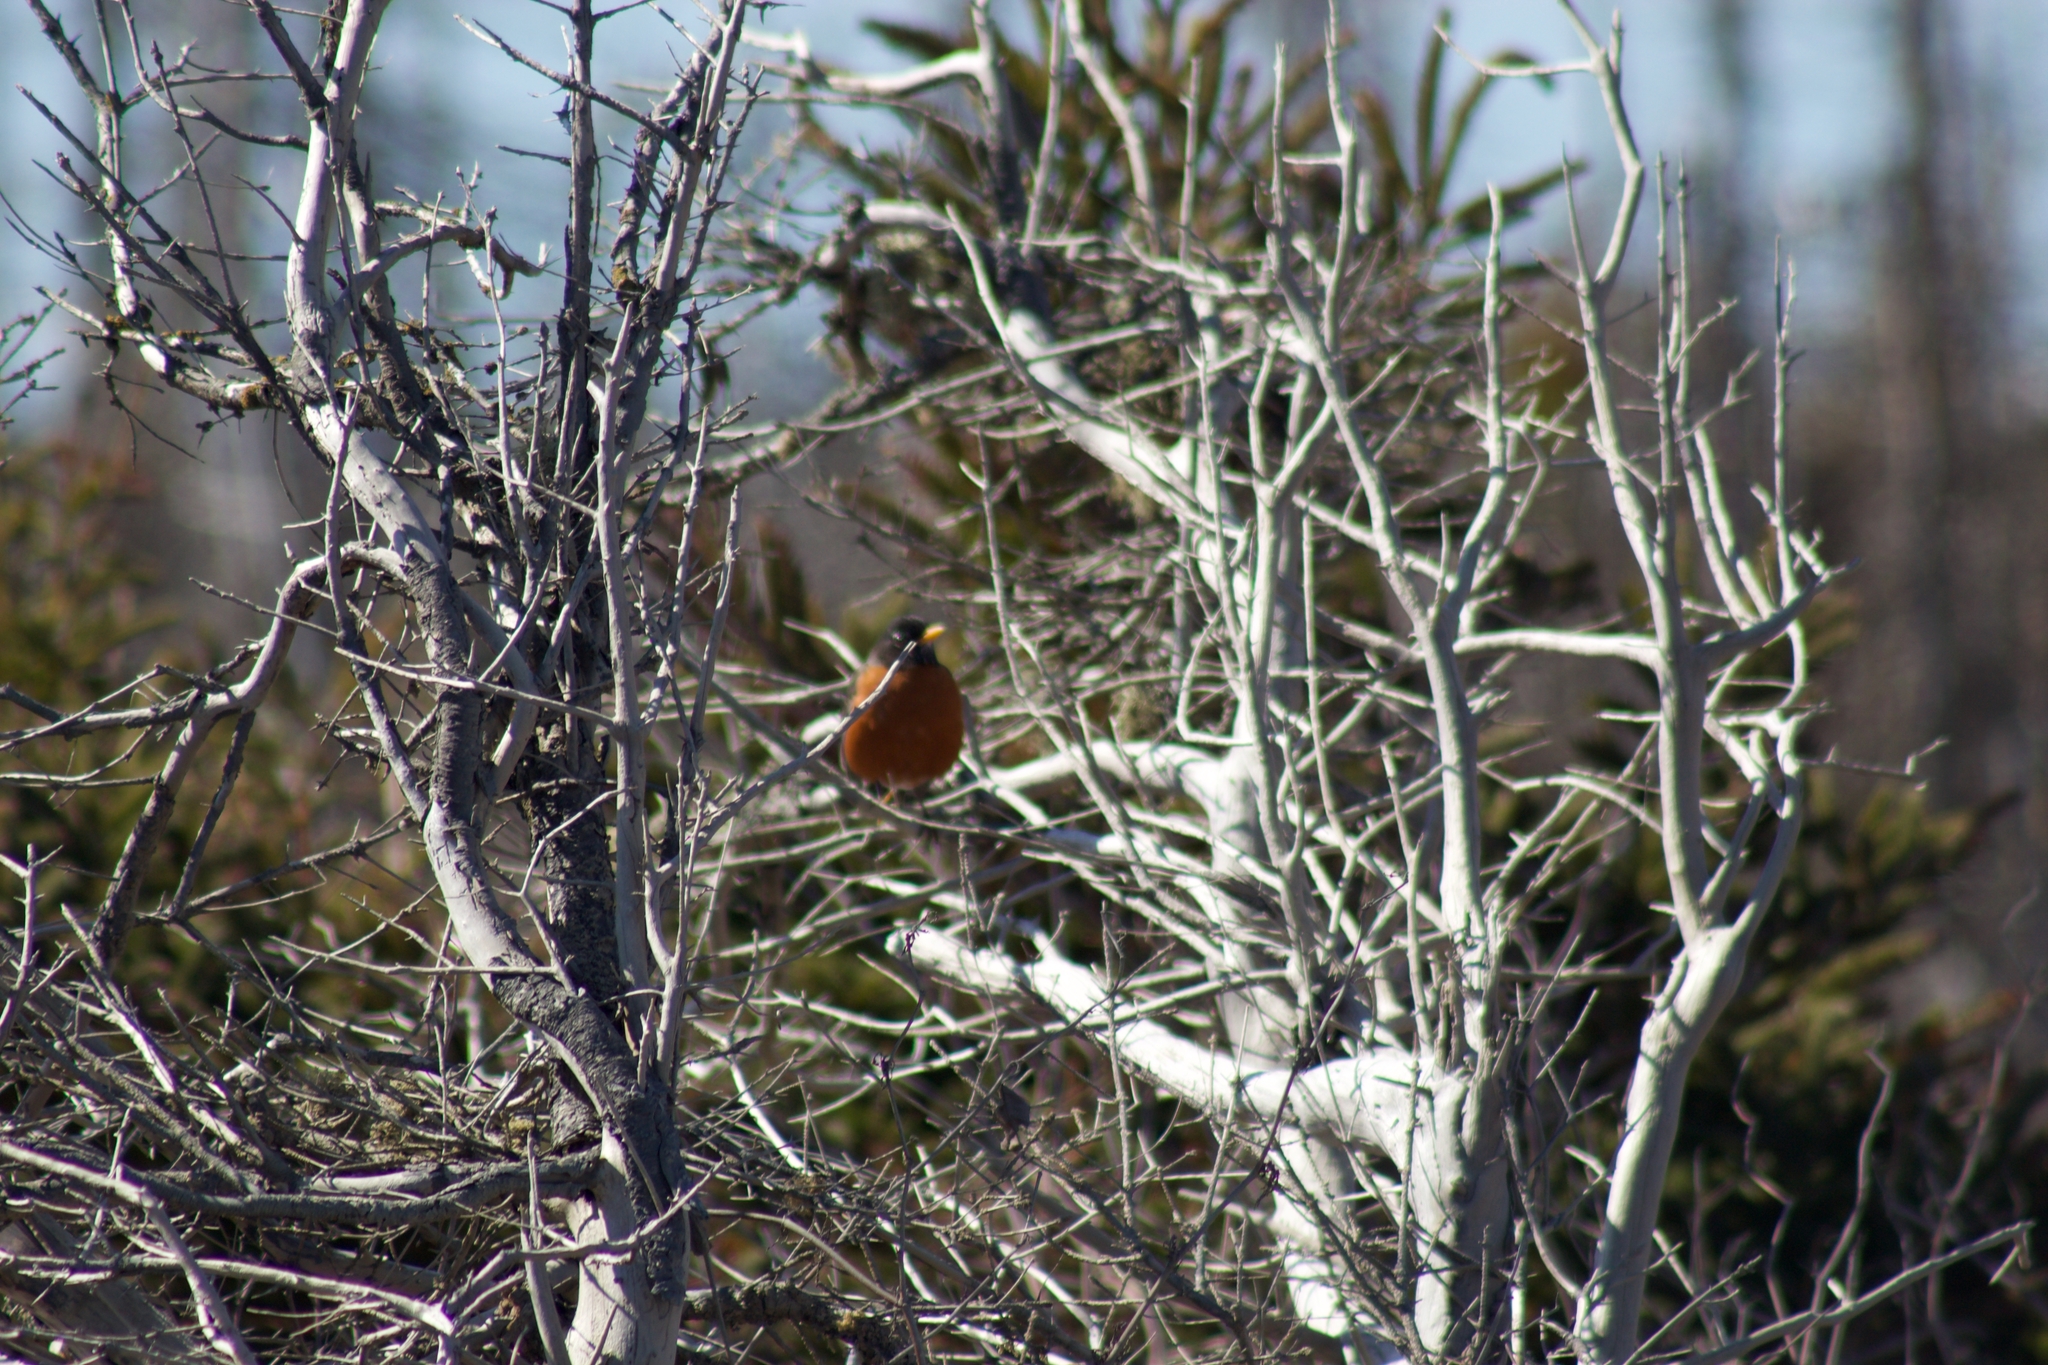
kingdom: Animalia
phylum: Chordata
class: Aves
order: Passeriformes
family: Turdidae
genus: Turdus
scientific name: Turdus migratorius
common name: American robin
